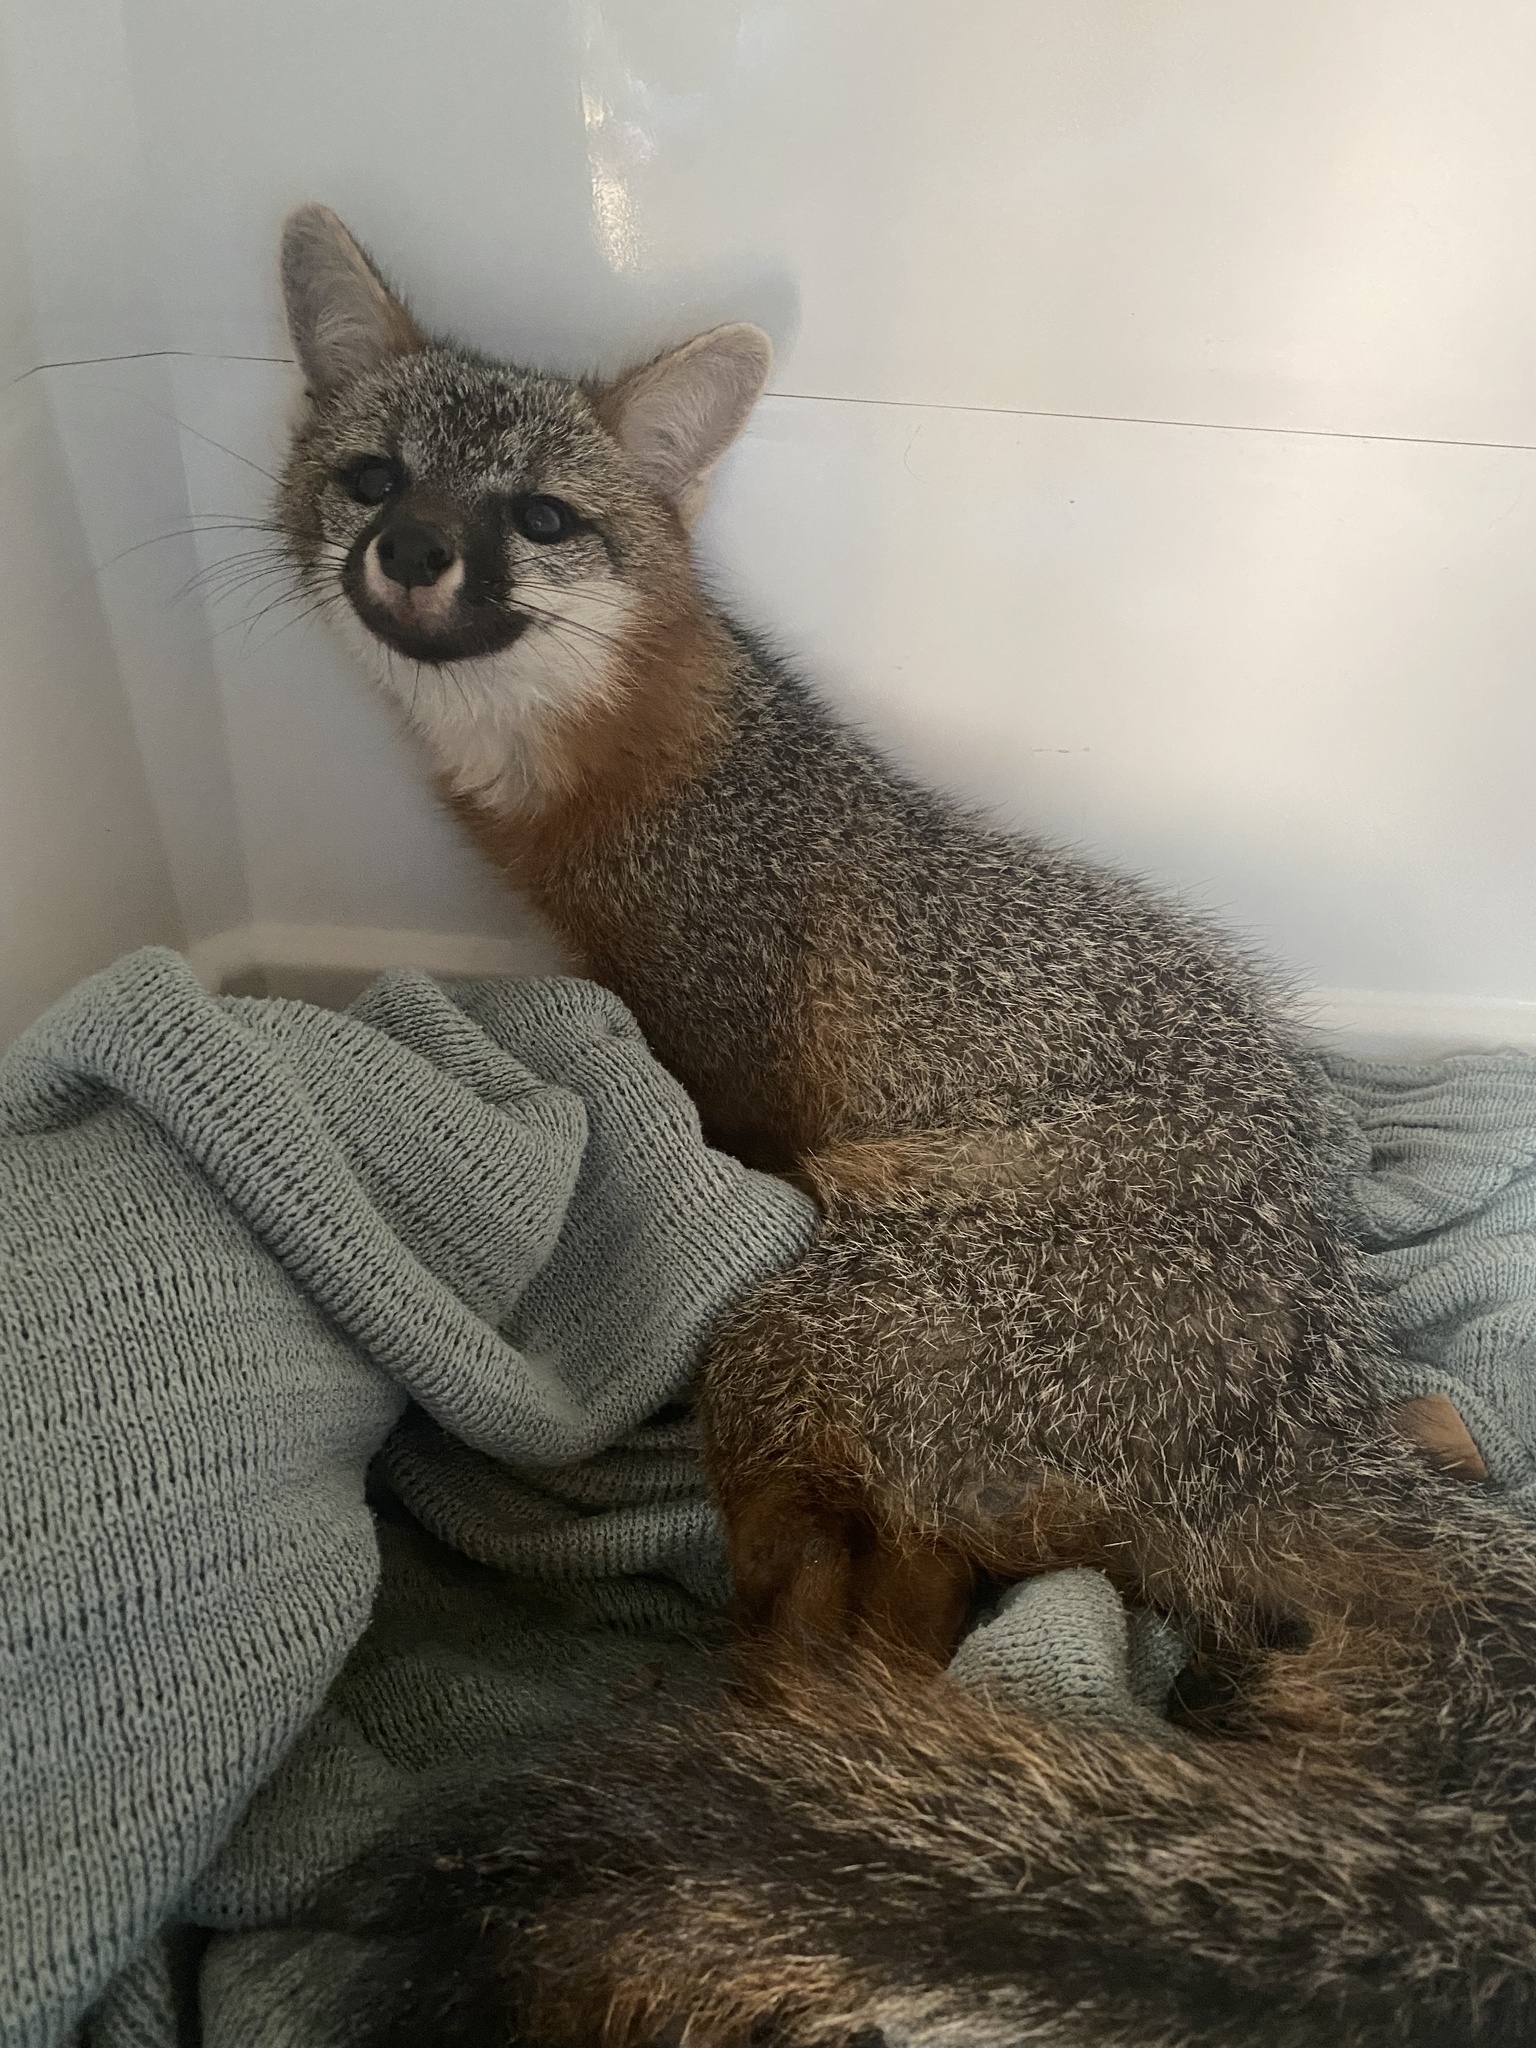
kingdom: Animalia
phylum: Chordata
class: Mammalia
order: Carnivora
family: Canidae
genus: Urocyon
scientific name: Urocyon cinereoargenteus
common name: Gray fox
